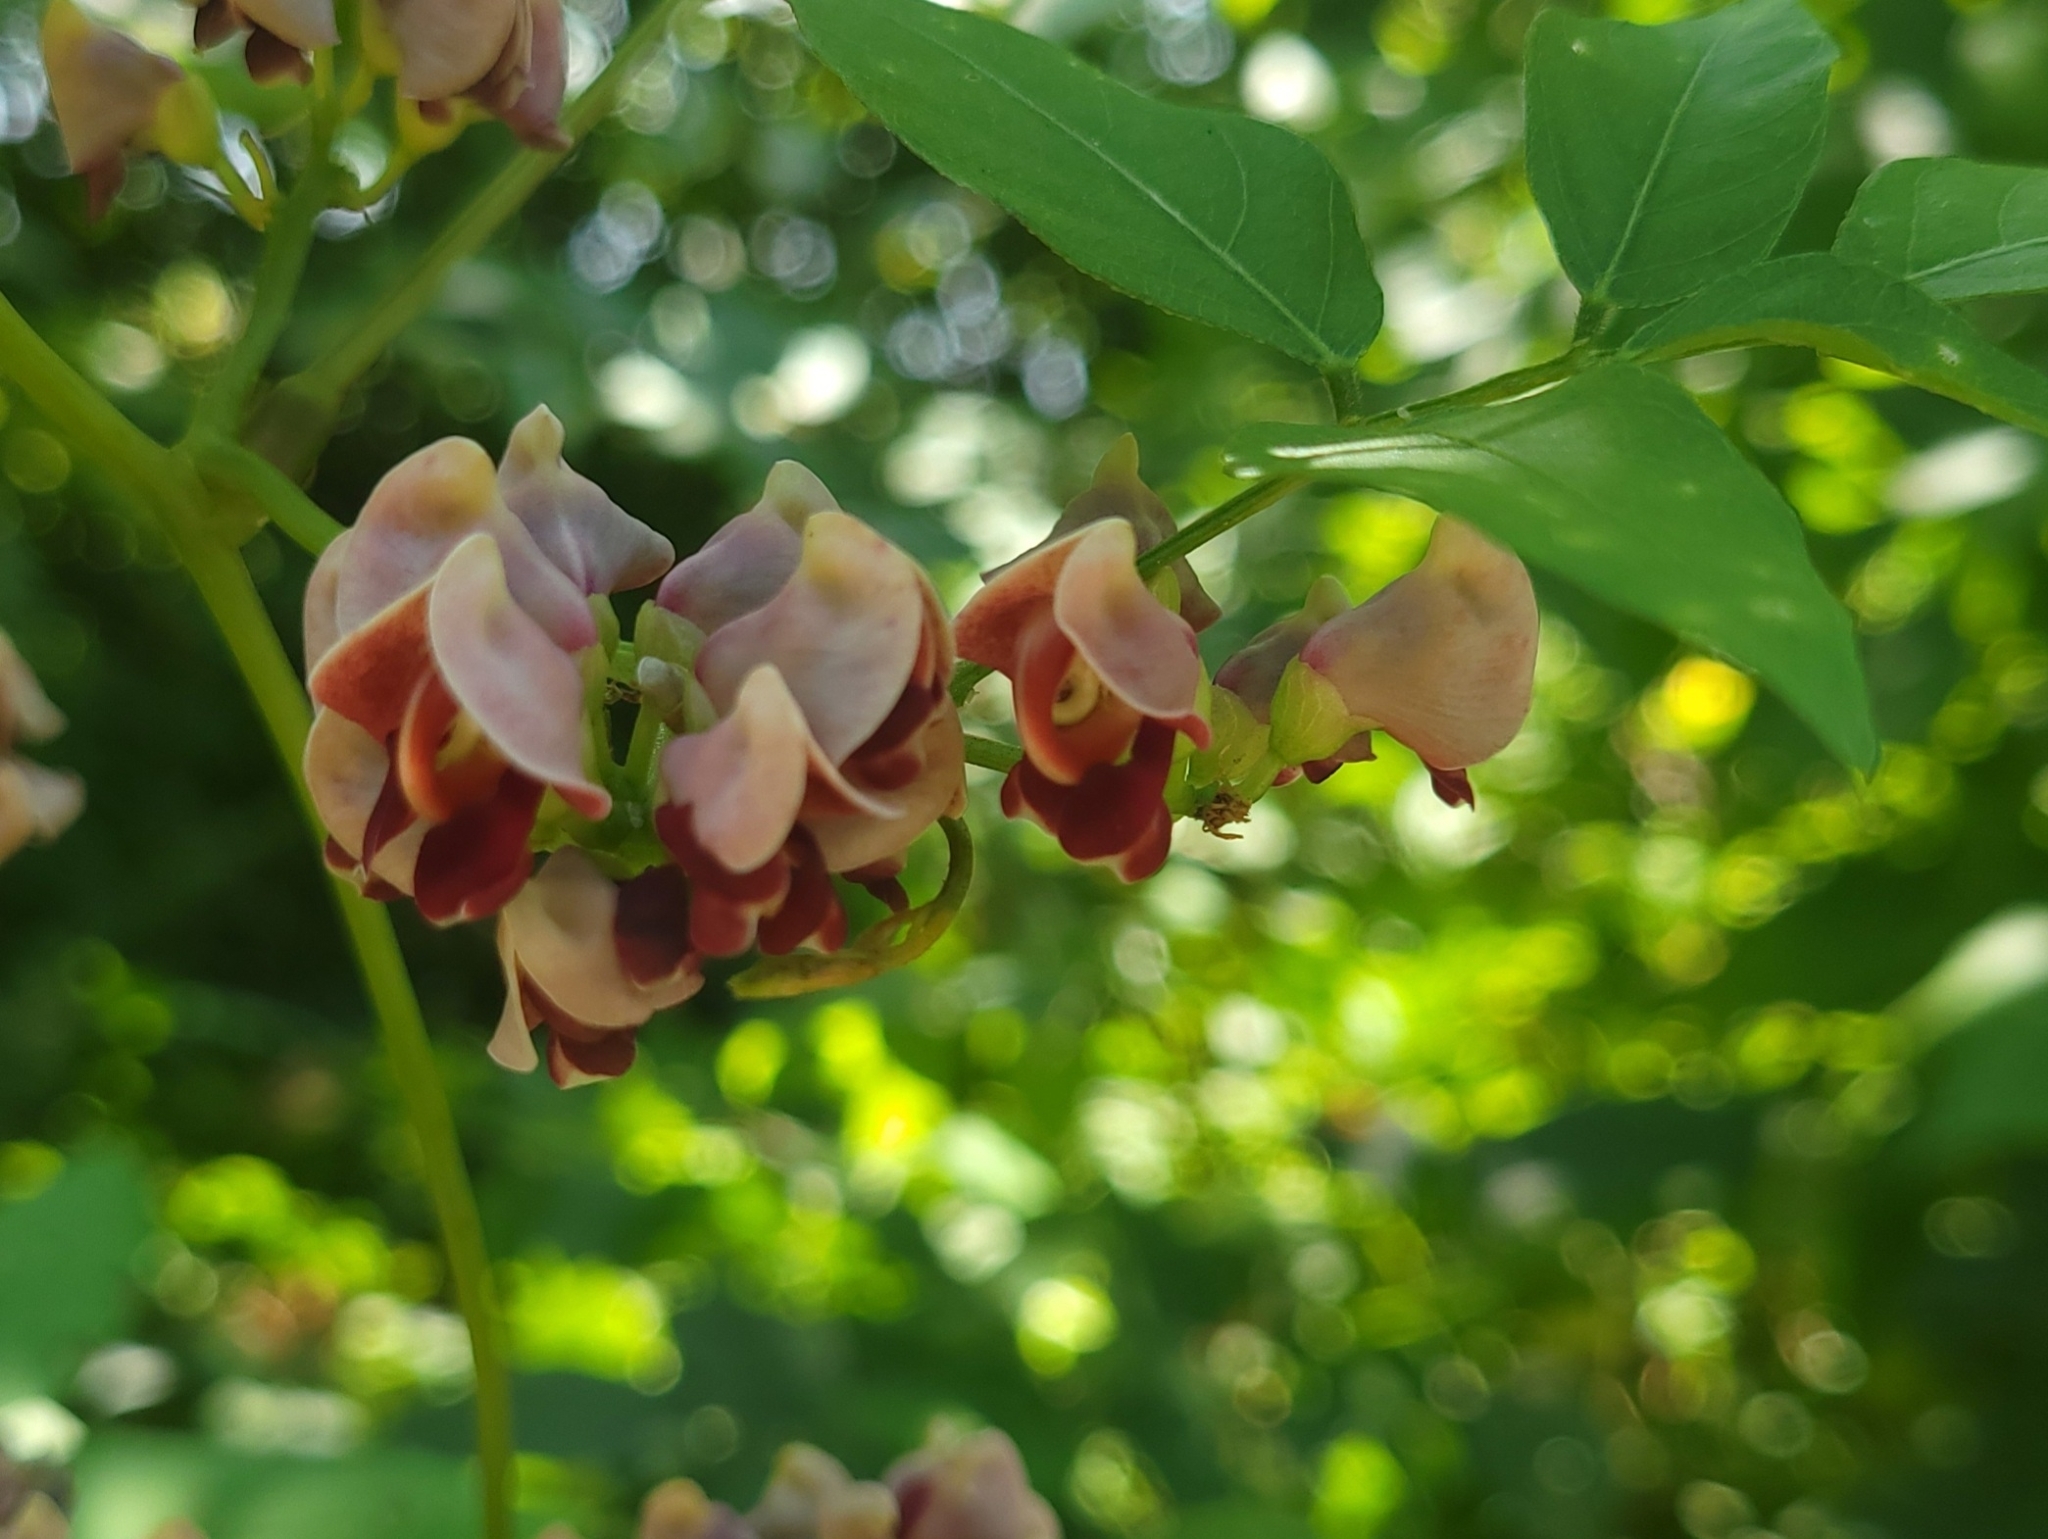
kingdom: Plantae
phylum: Tracheophyta
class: Magnoliopsida
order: Fabales
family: Fabaceae
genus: Apios
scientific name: Apios americana
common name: American potato-bean
